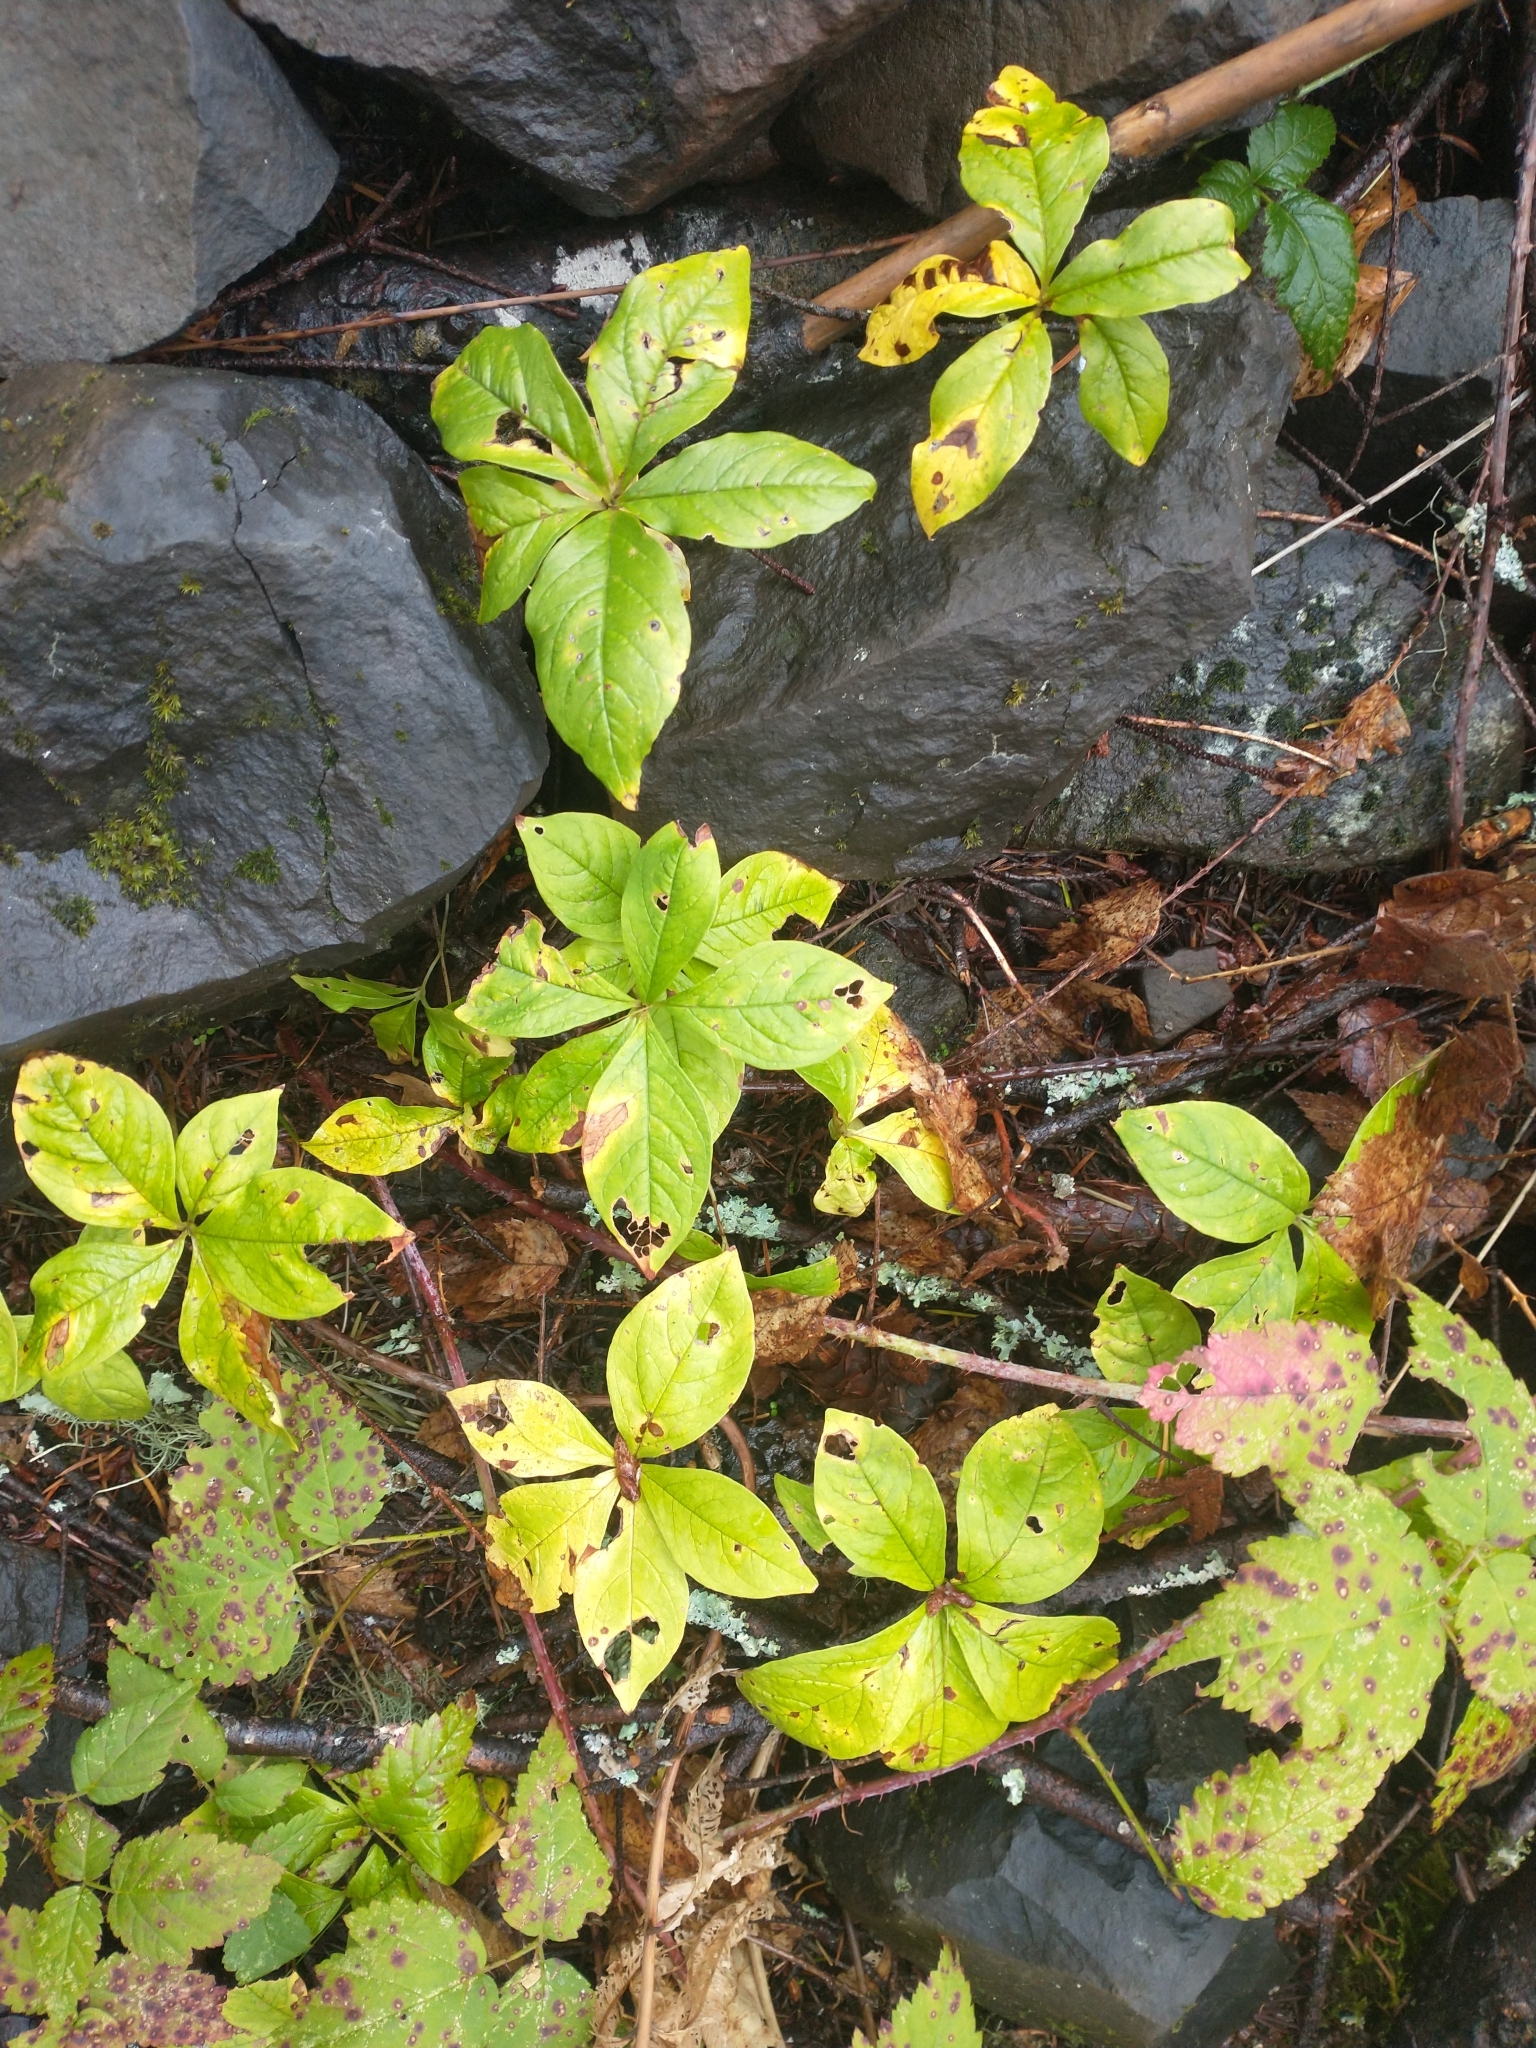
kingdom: Plantae
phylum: Tracheophyta
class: Magnoliopsida
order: Ericales
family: Primulaceae
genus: Lysimachia
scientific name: Lysimachia latifolia
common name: Pacific starflower
